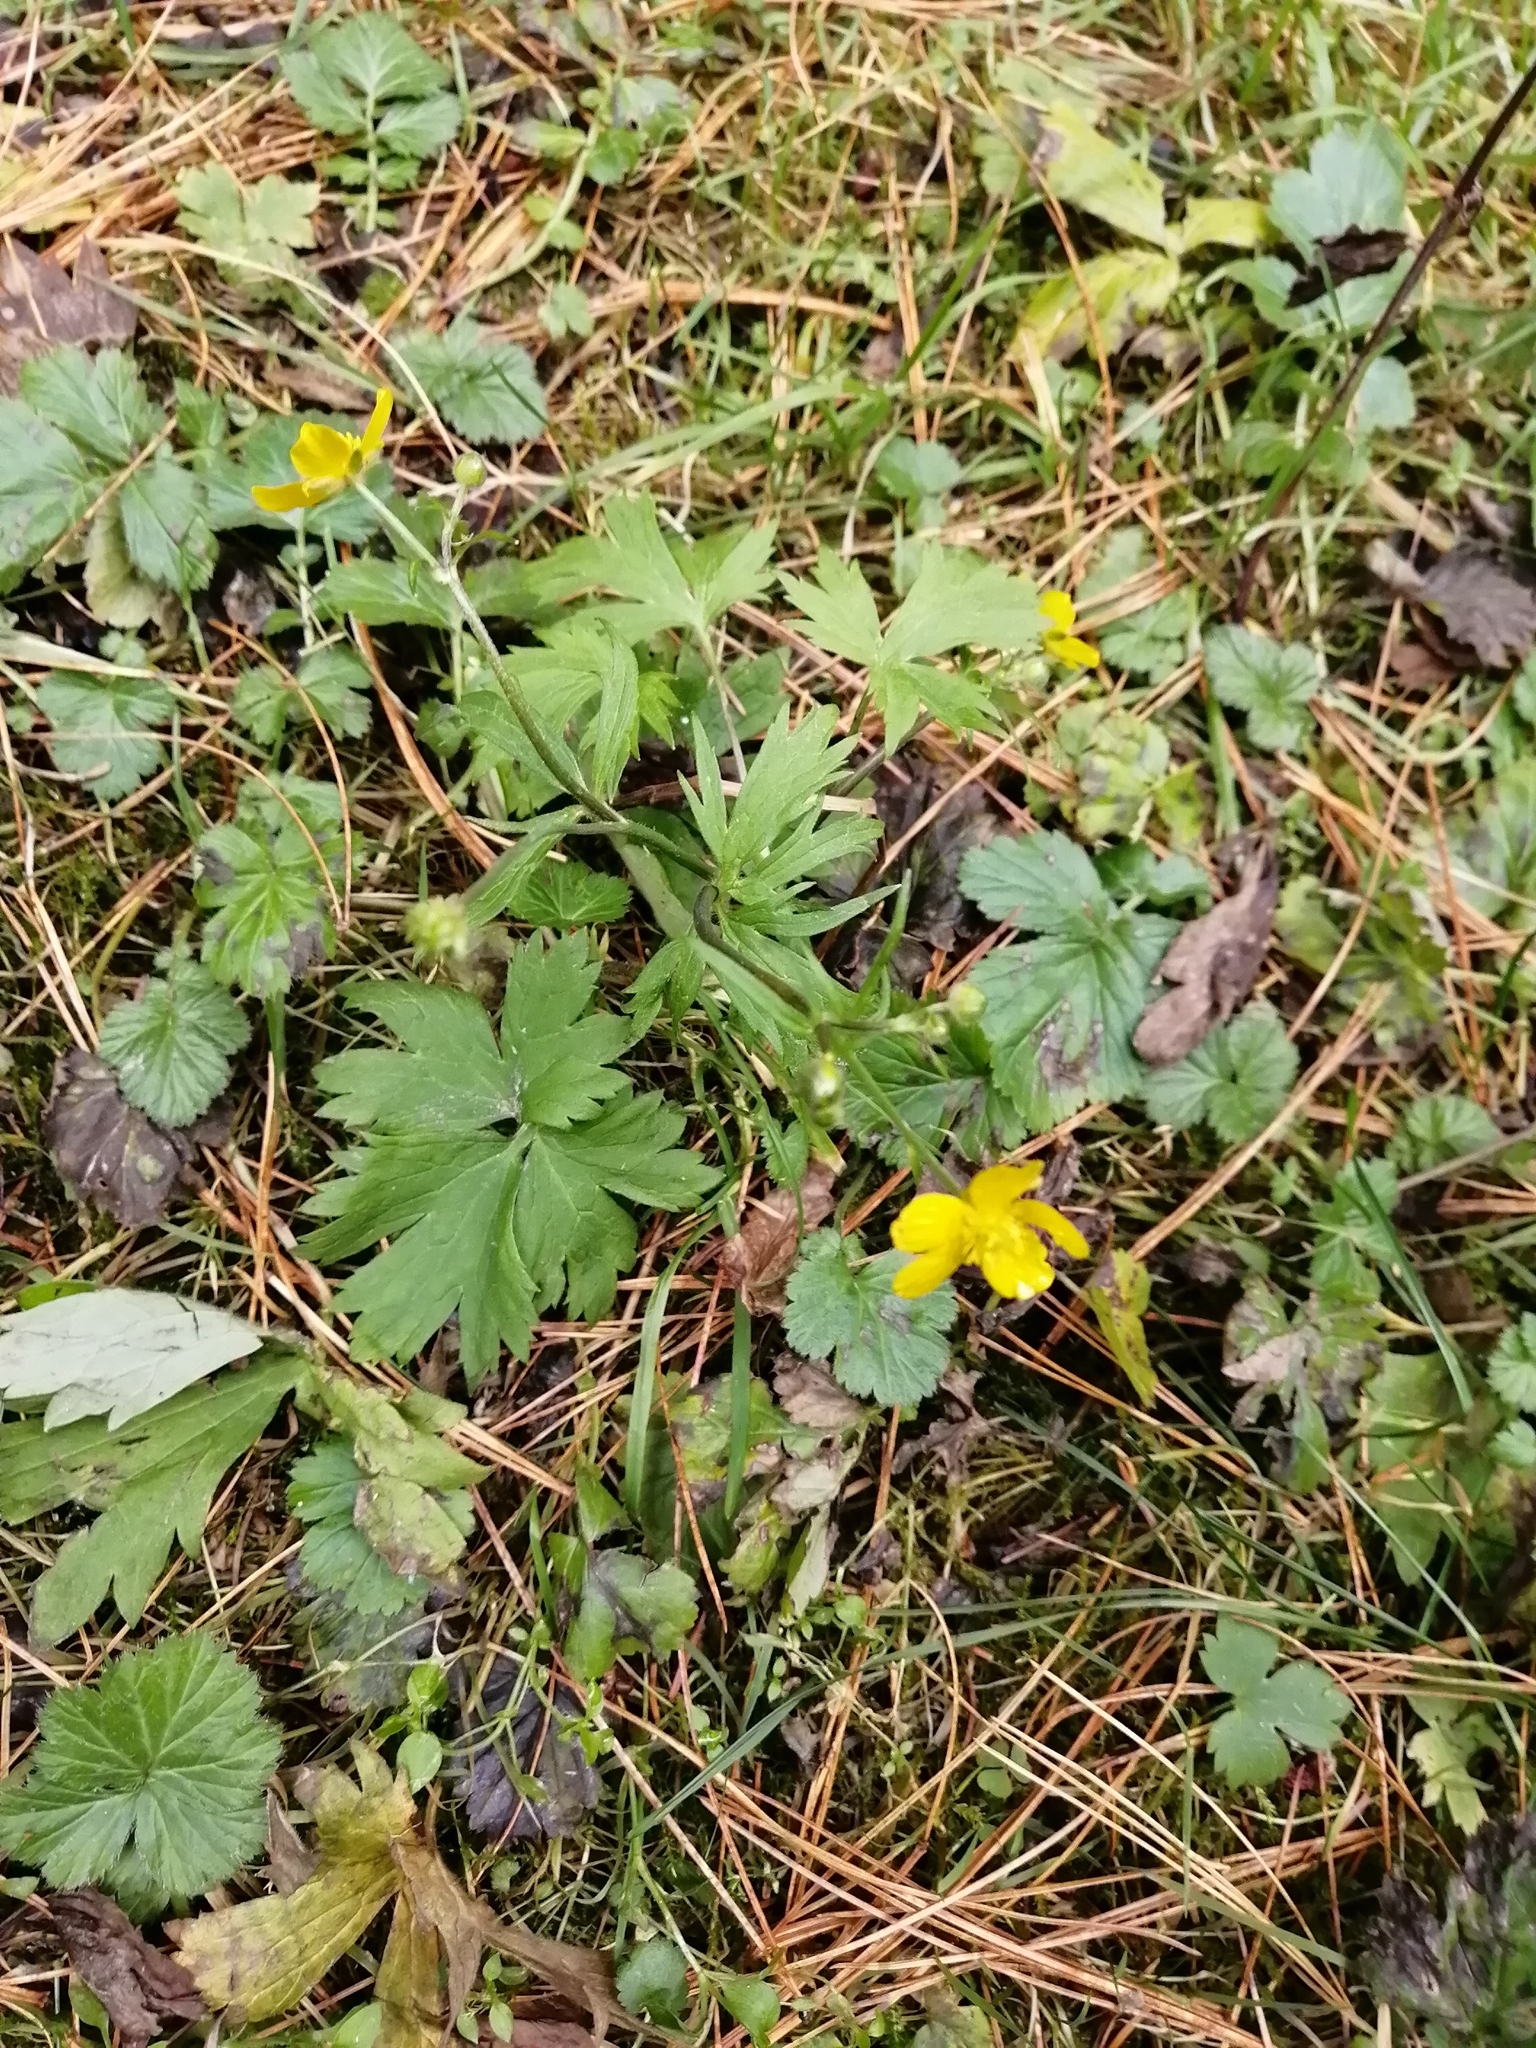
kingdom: Plantae
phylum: Tracheophyta
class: Magnoliopsida
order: Ranunculales
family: Ranunculaceae
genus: Ranunculus
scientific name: Ranunculus propinquus
